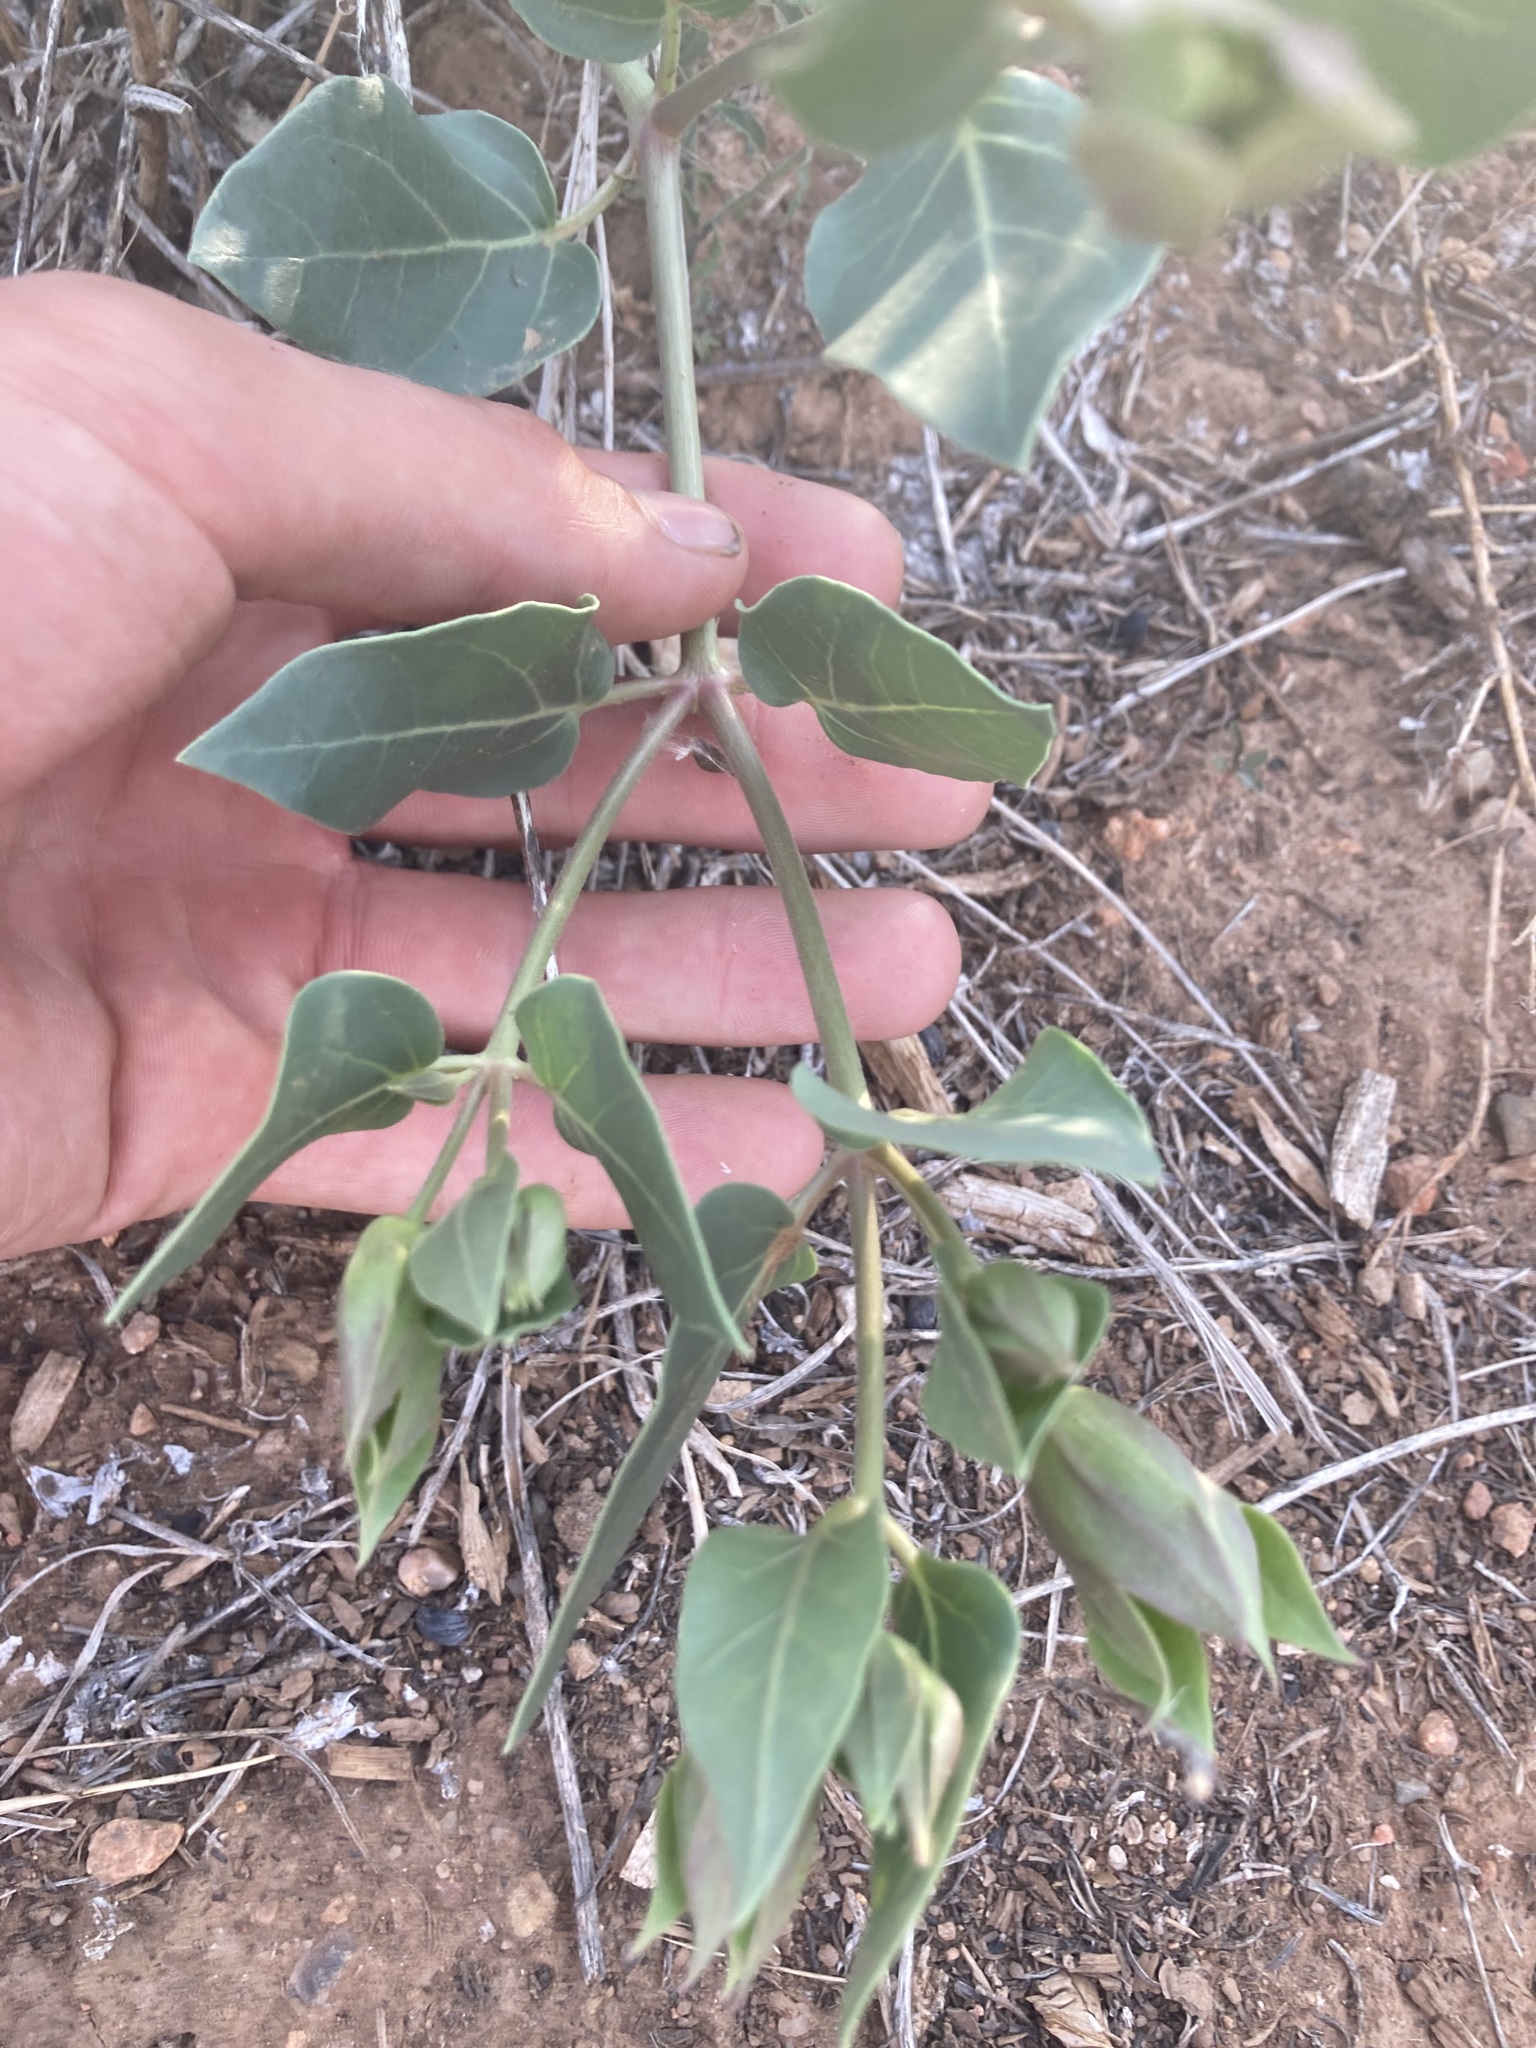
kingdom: Plantae
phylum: Tracheophyta
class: Magnoliopsida
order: Caryophyllales
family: Nyctaginaceae
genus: Mirabilis
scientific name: Mirabilis multiflora
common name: Froebel's four-o'clock
